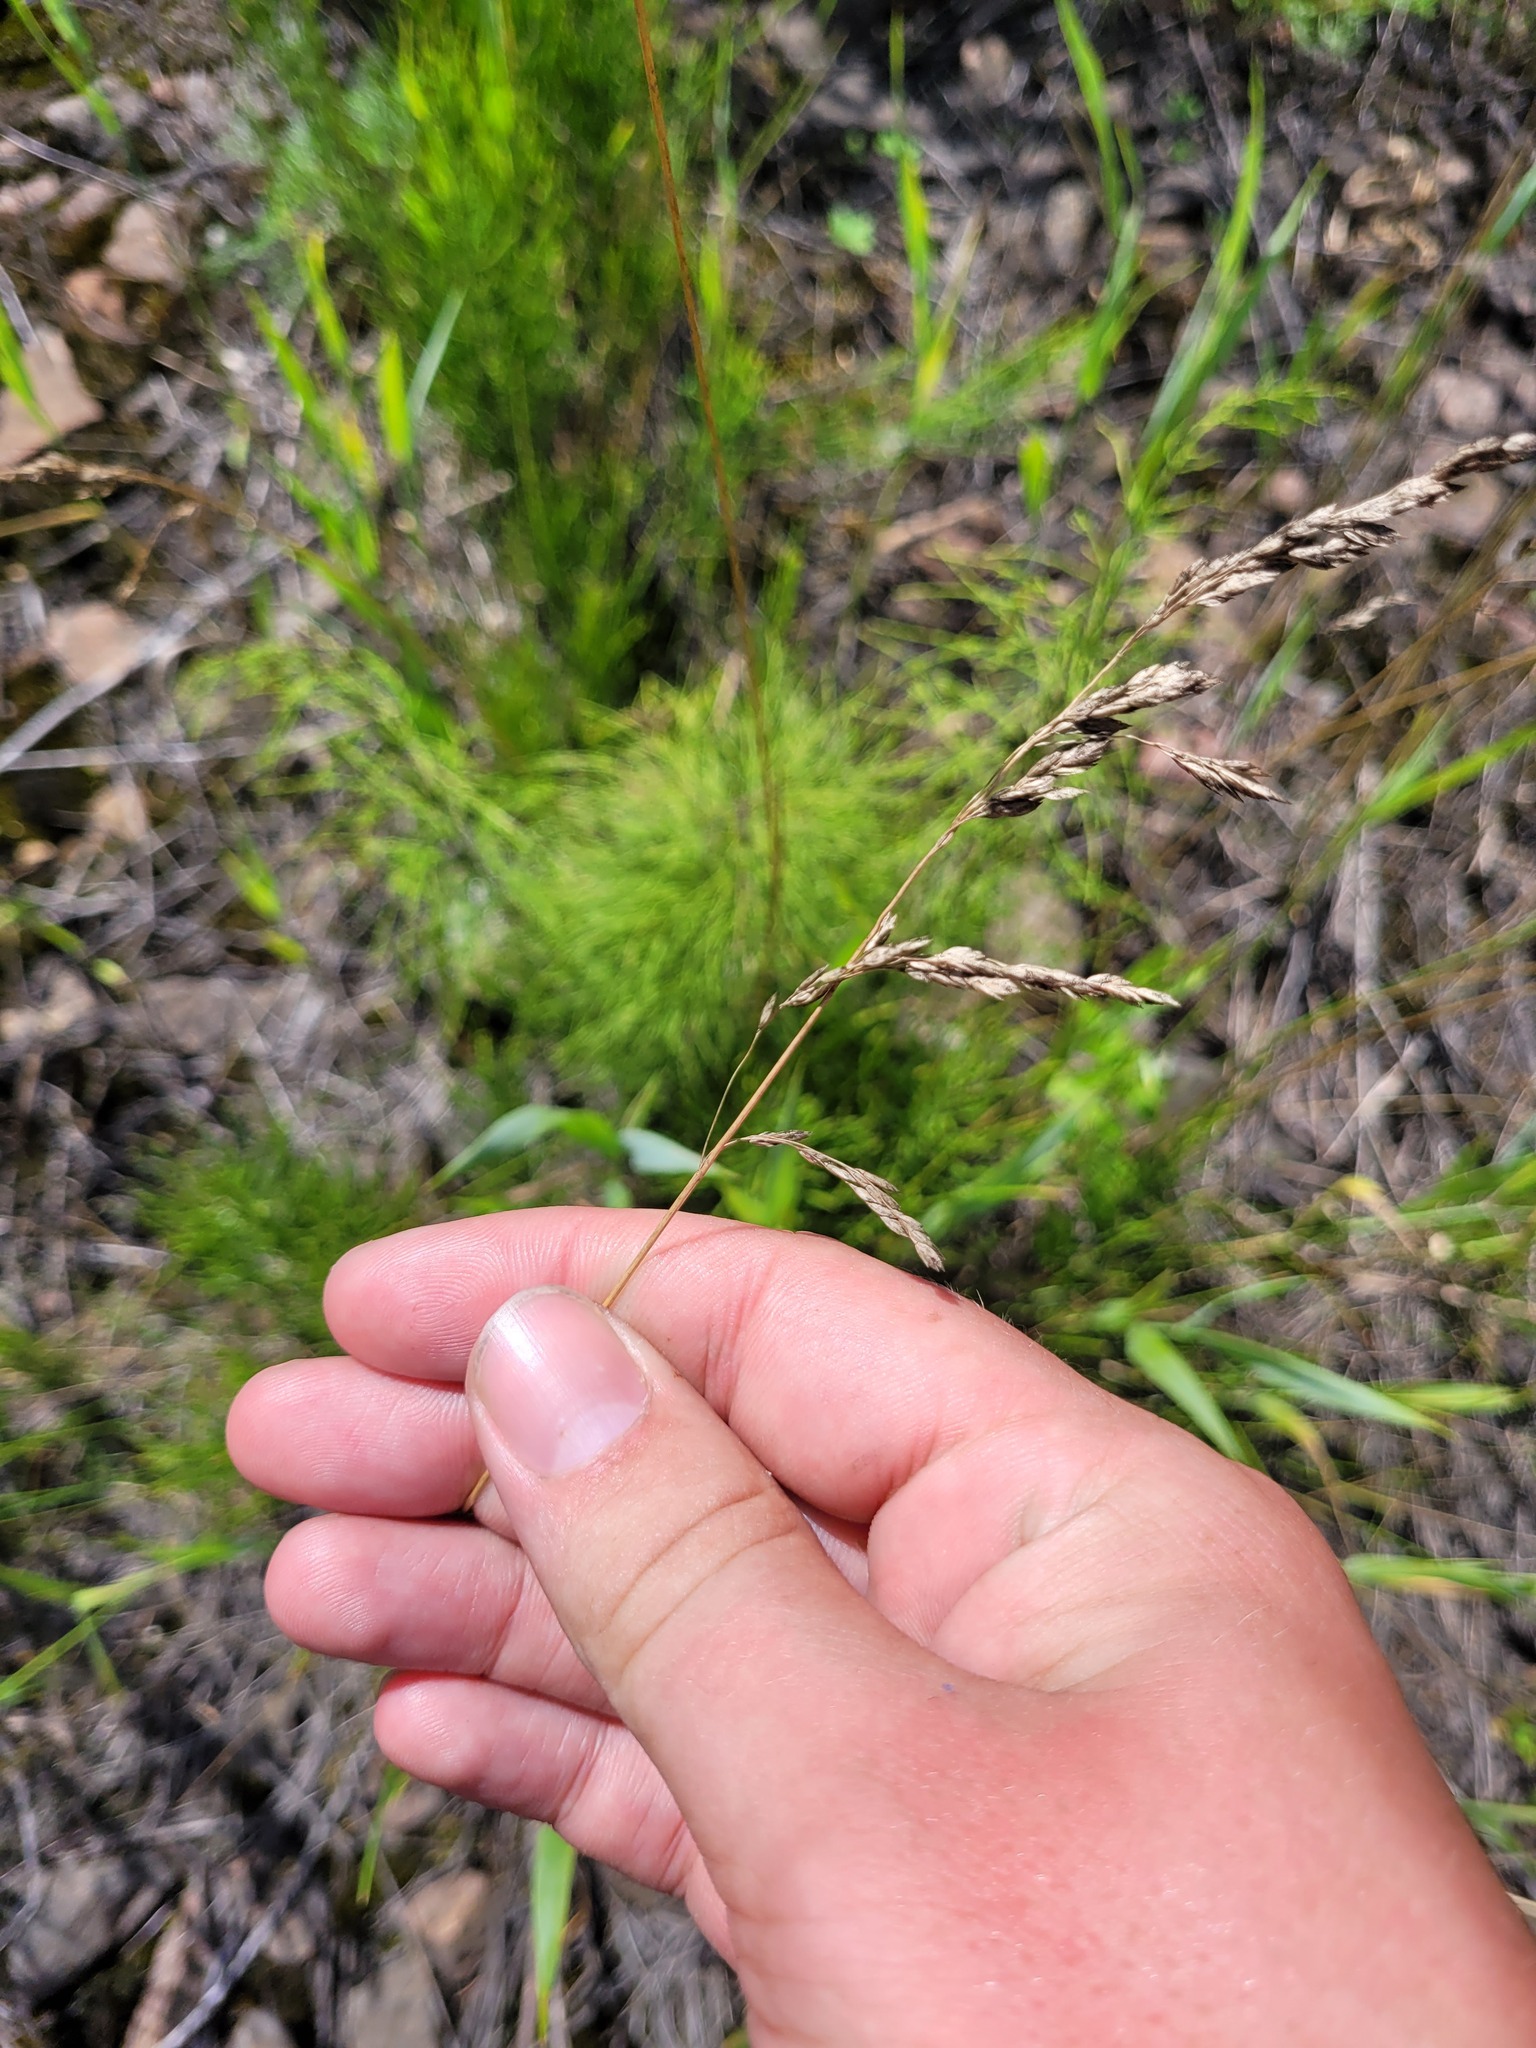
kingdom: Plantae
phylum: Tracheophyta
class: Liliopsida
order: Poales
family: Poaceae
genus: Poa
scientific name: Poa angustifolia
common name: Narrow-leaved meadow-grass
